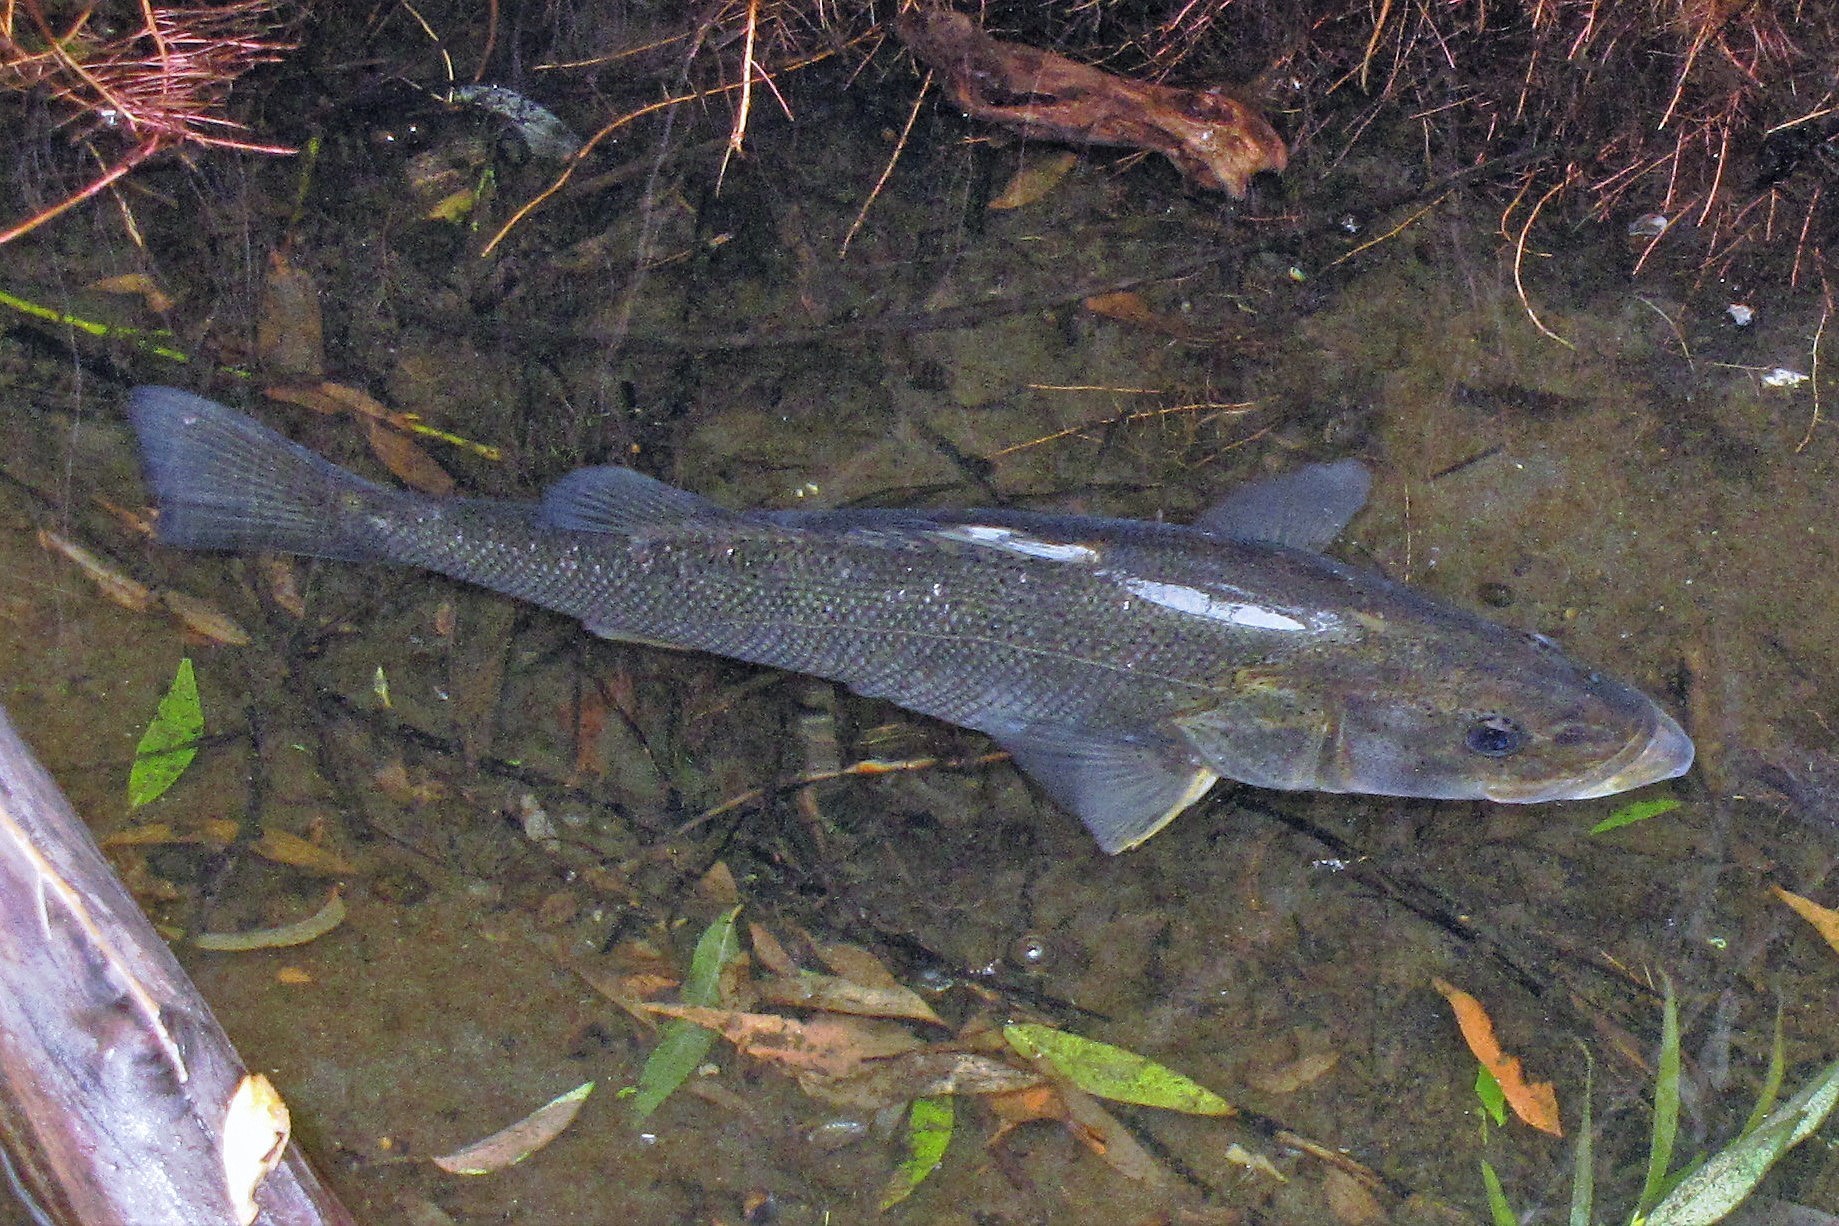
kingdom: Animalia
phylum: Chordata
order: Perciformes
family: Percichthyidae
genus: Percichthys
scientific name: Percichthys trucha
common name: Creole perch
